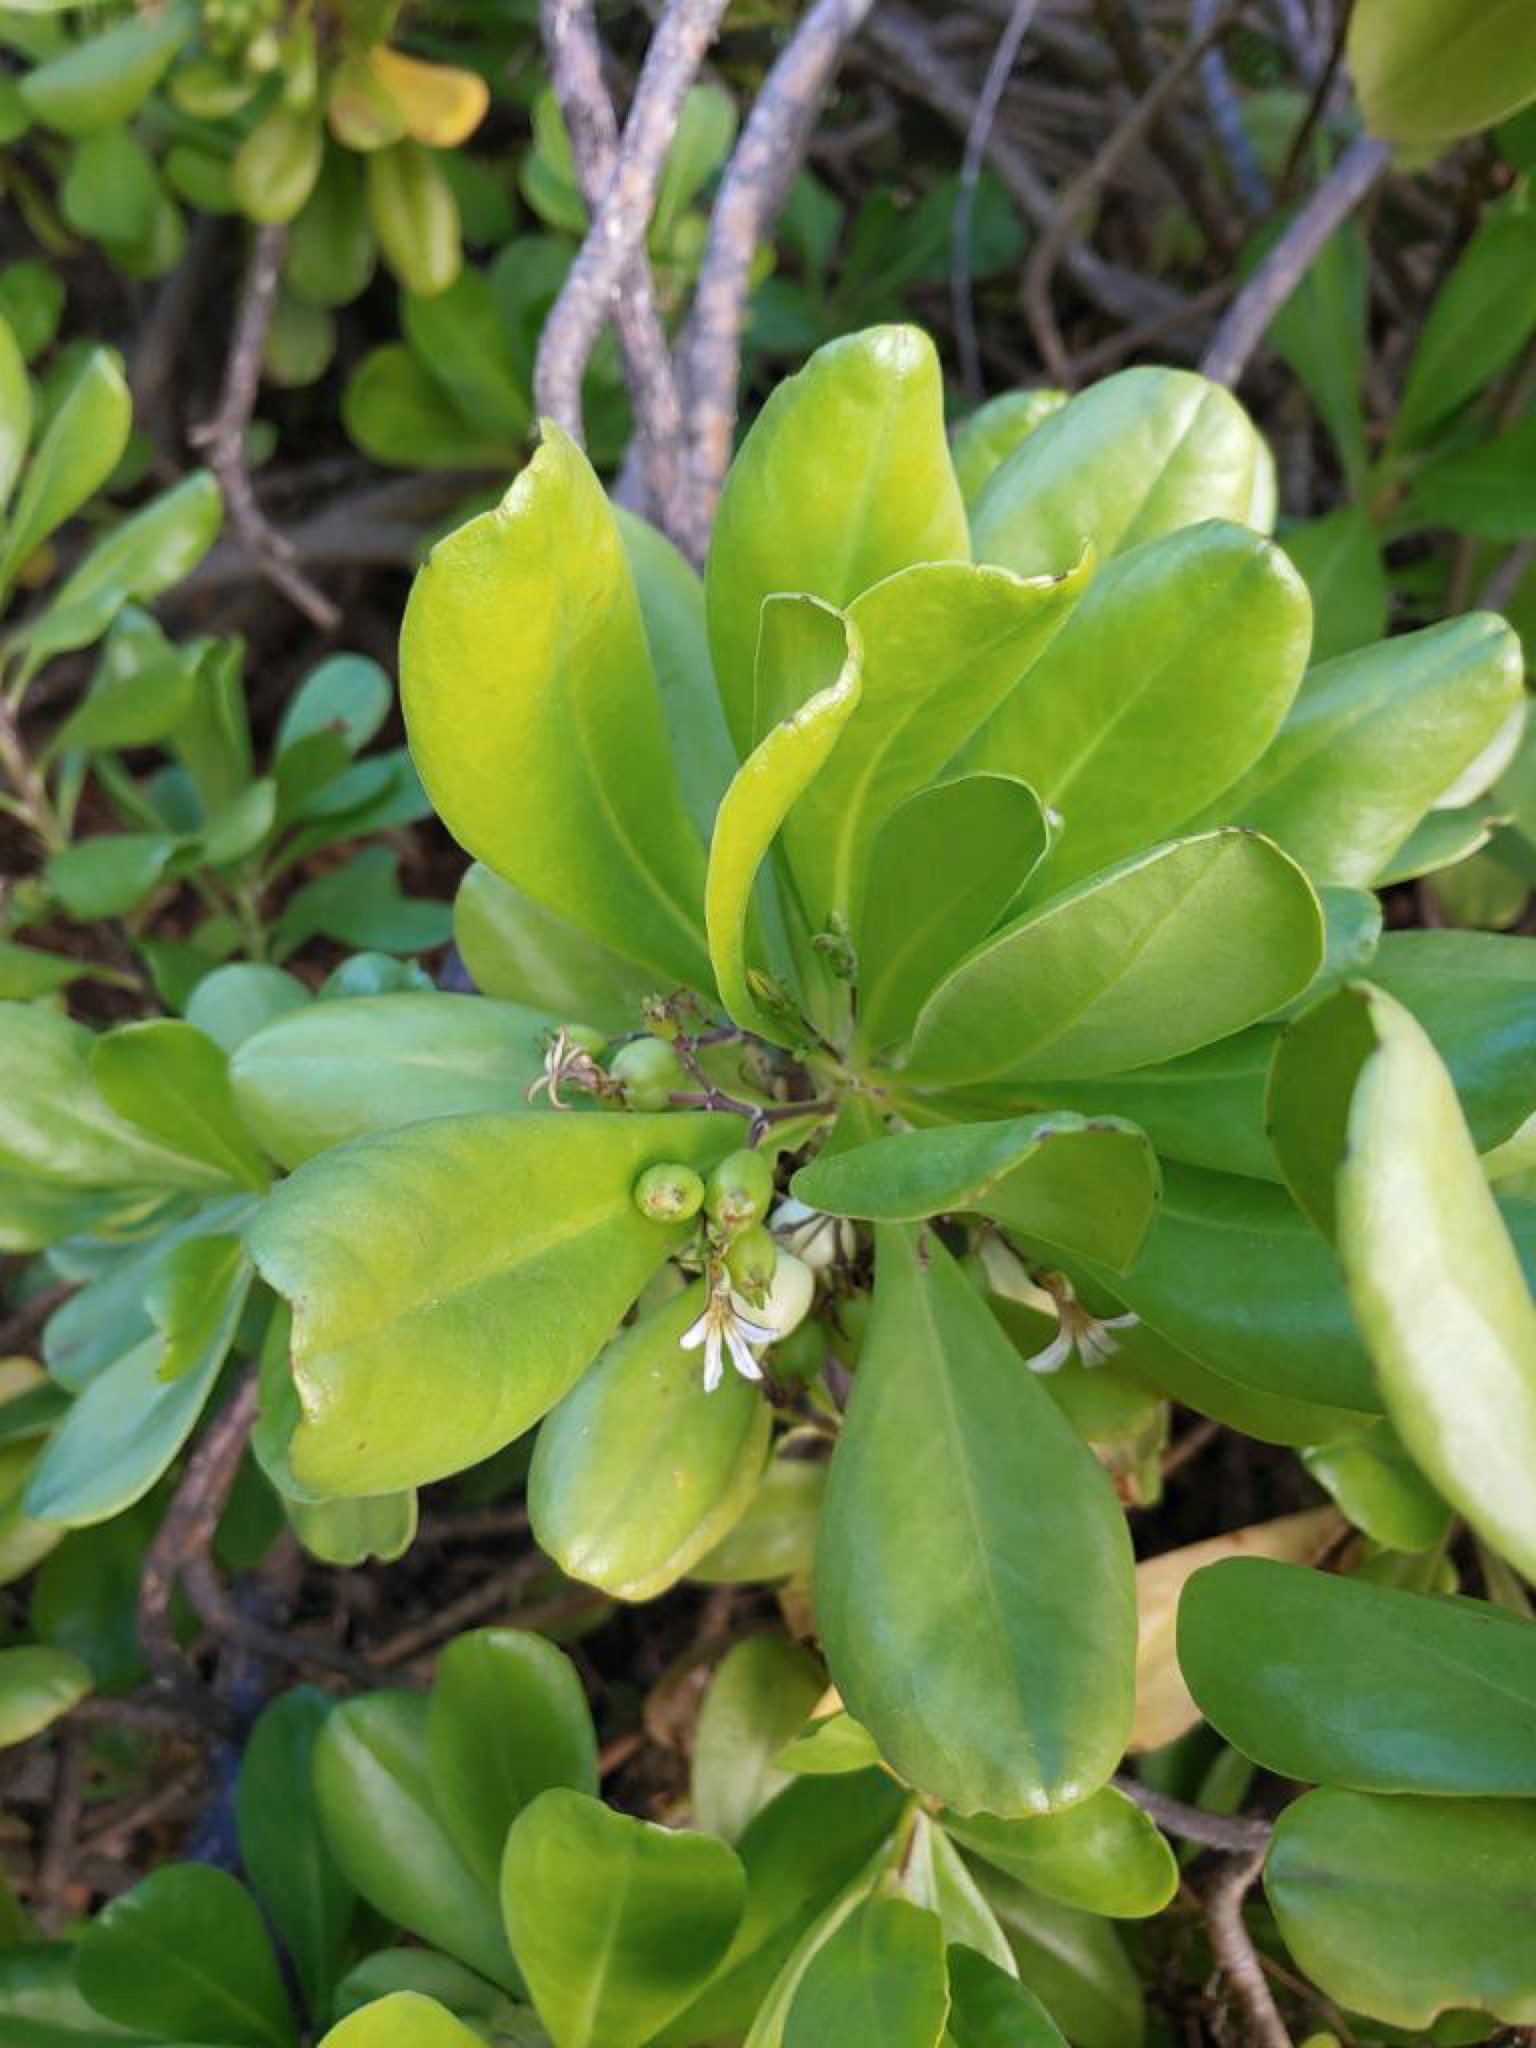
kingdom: Plantae
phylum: Tracheophyta
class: Magnoliopsida
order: Asterales
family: Goodeniaceae
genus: Scaevola
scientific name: Scaevola taccada
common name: Sea lettucetree
